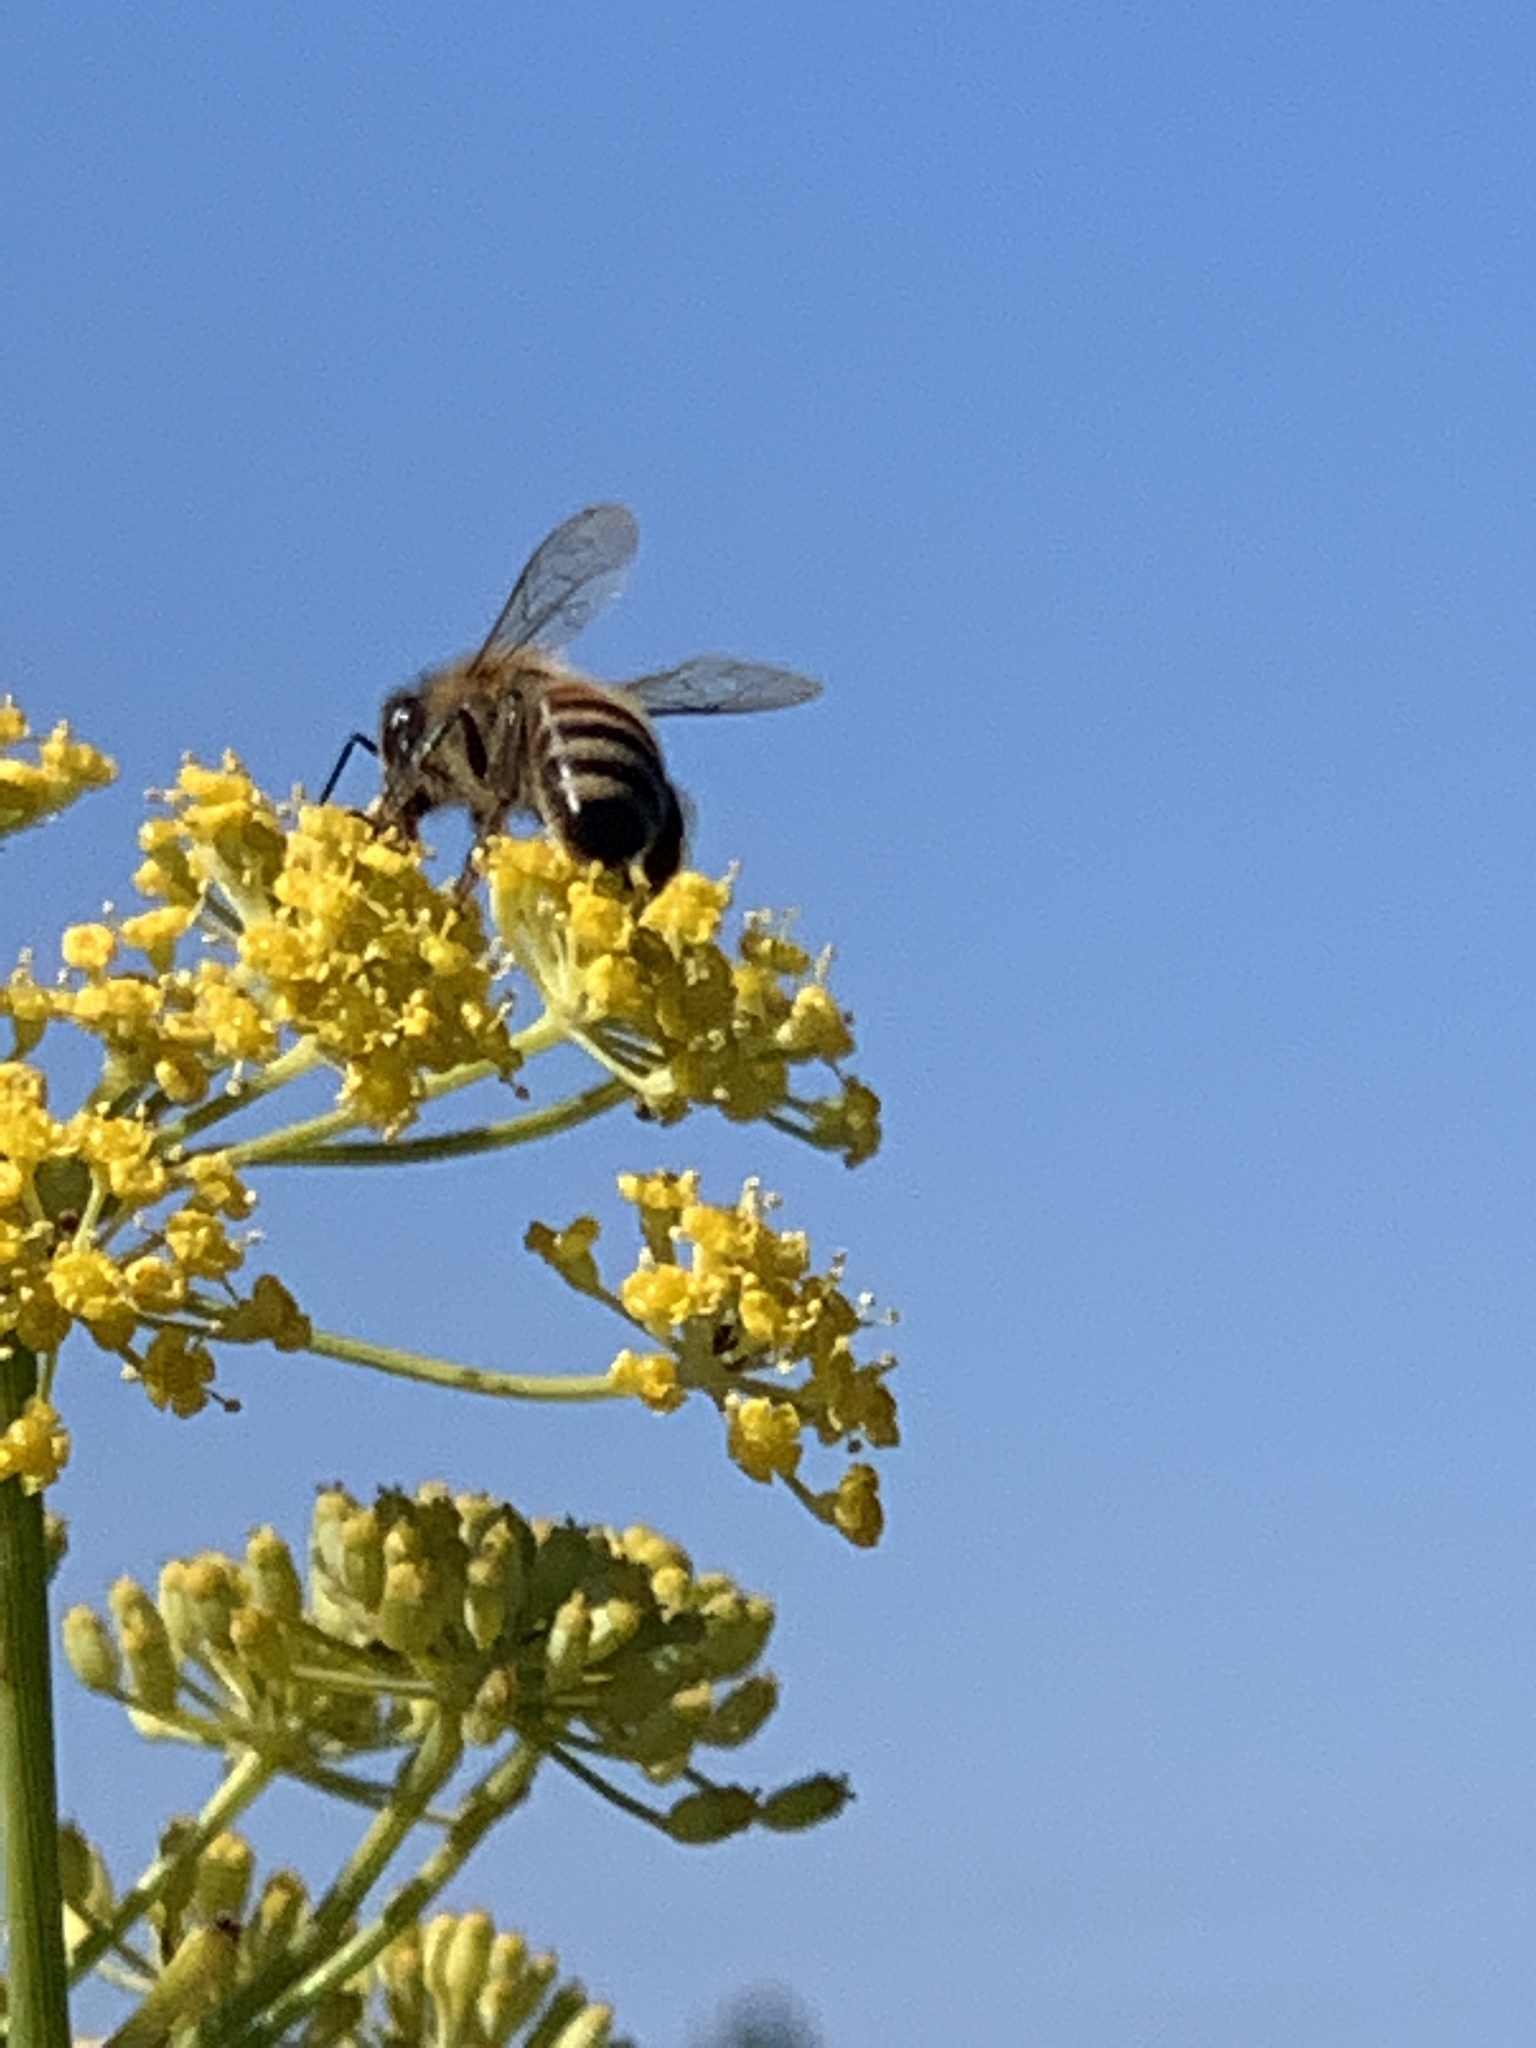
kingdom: Animalia
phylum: Arthropoda
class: Insecta
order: Hymenoptera
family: Apidae
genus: Apis
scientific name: Apis mellifera
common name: Honey bee
